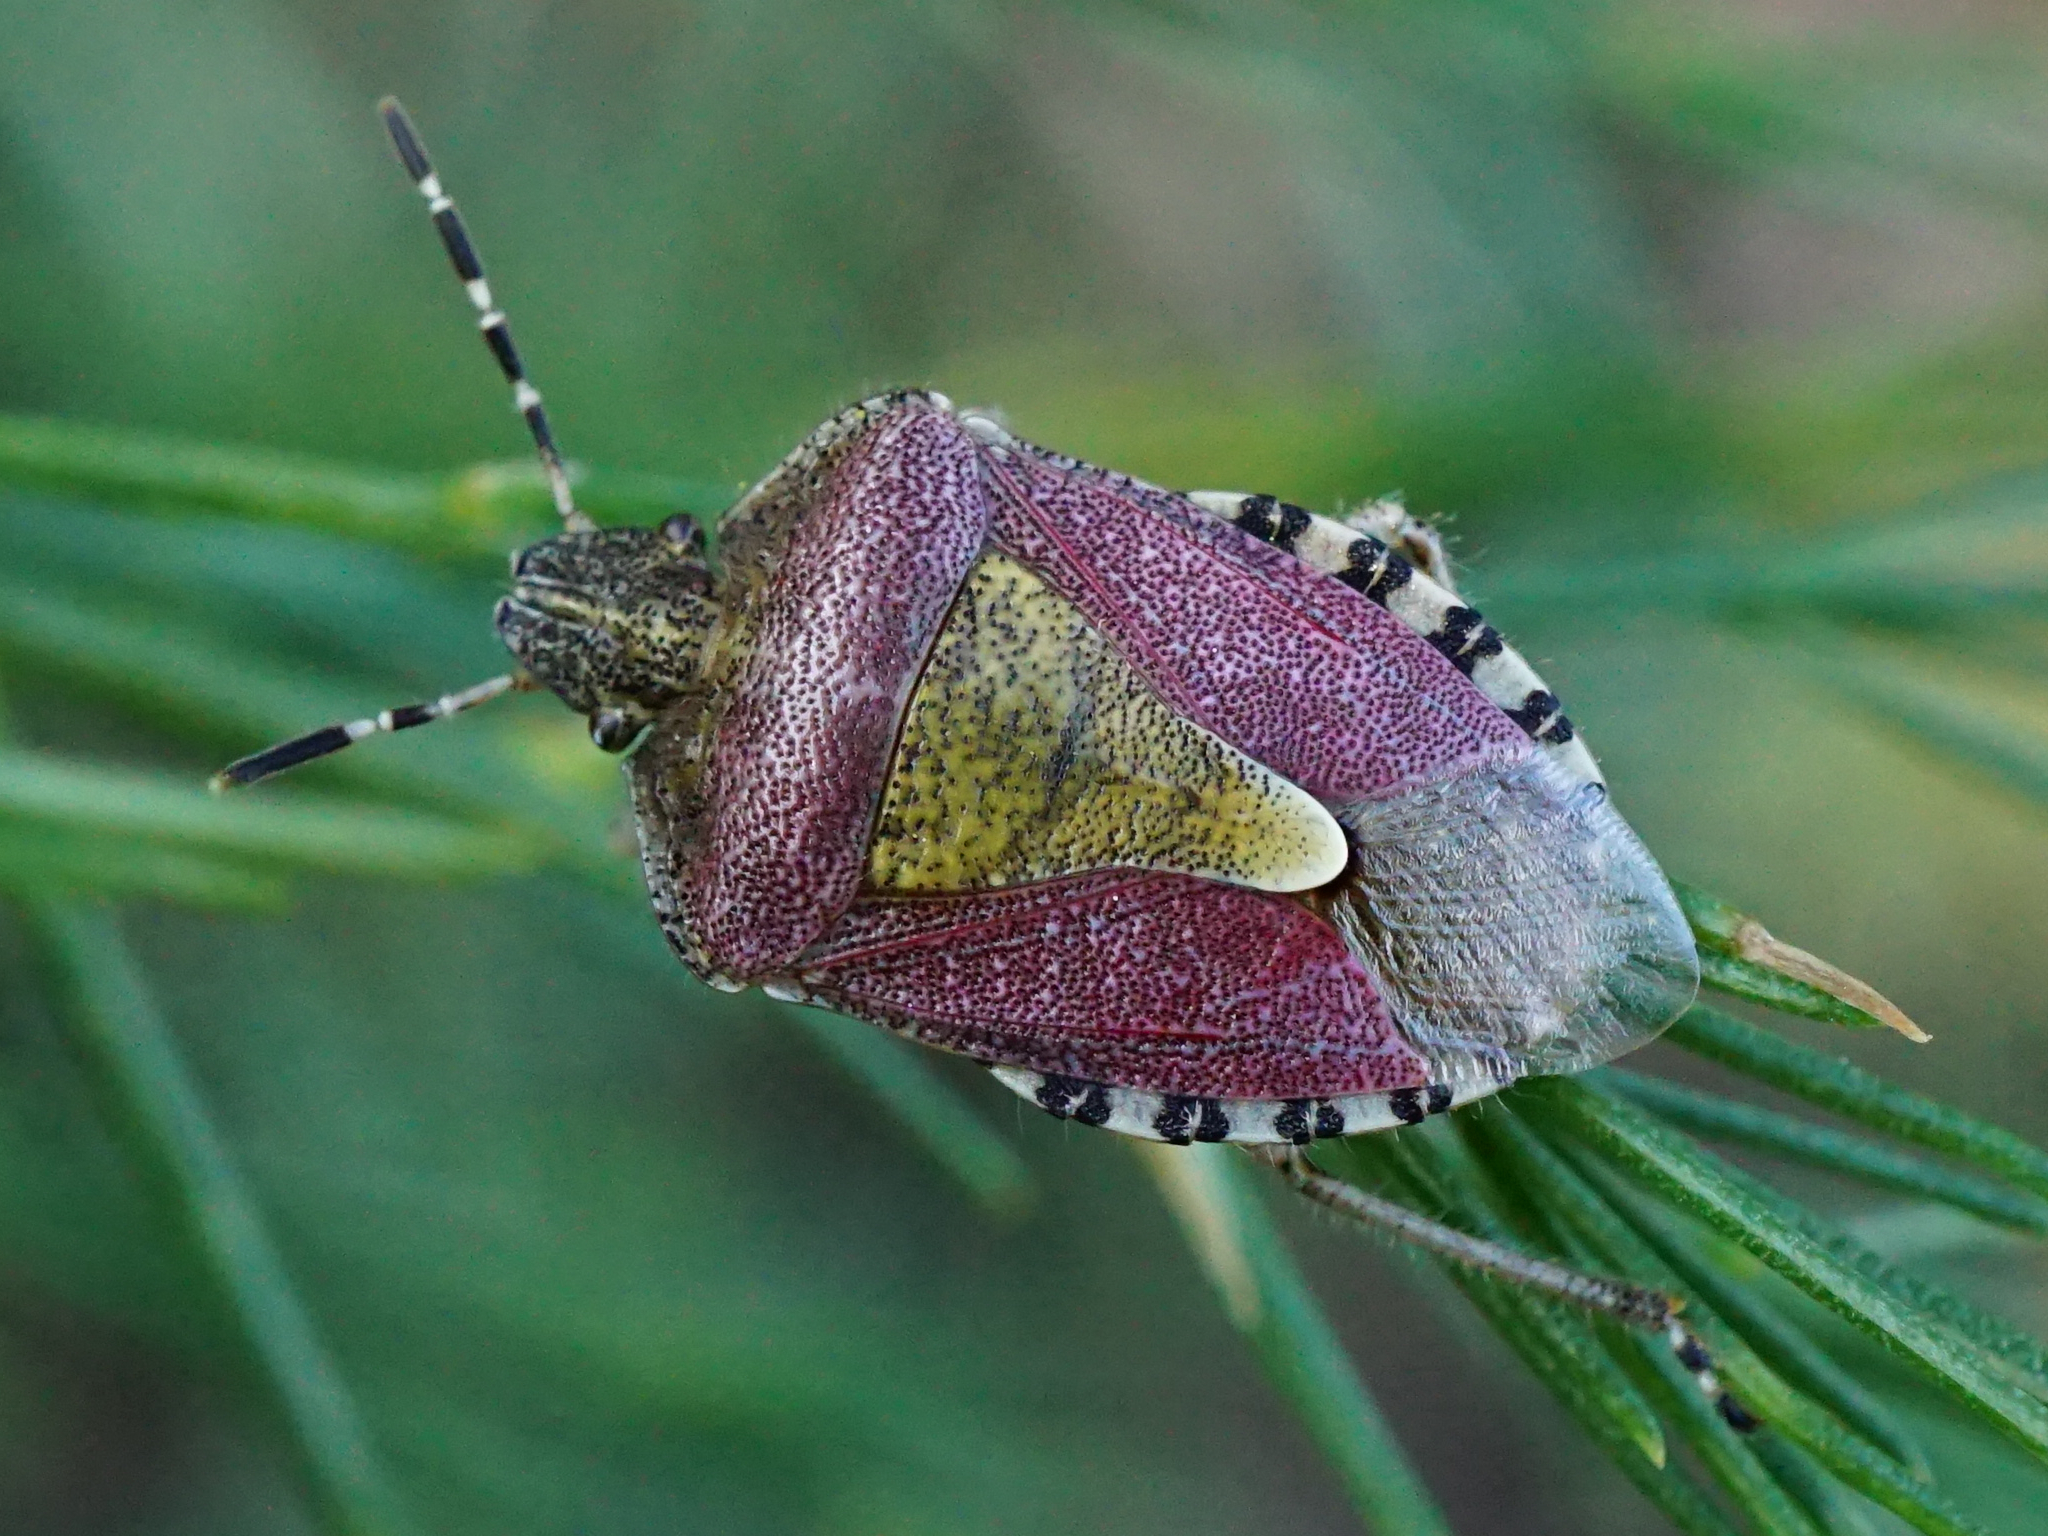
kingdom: Animalia
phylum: Arthropoda
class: Insecta
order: Hemiptera
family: Pentatomidae
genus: Dolycoris
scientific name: Dolycoris baccarum
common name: Sloe bug
